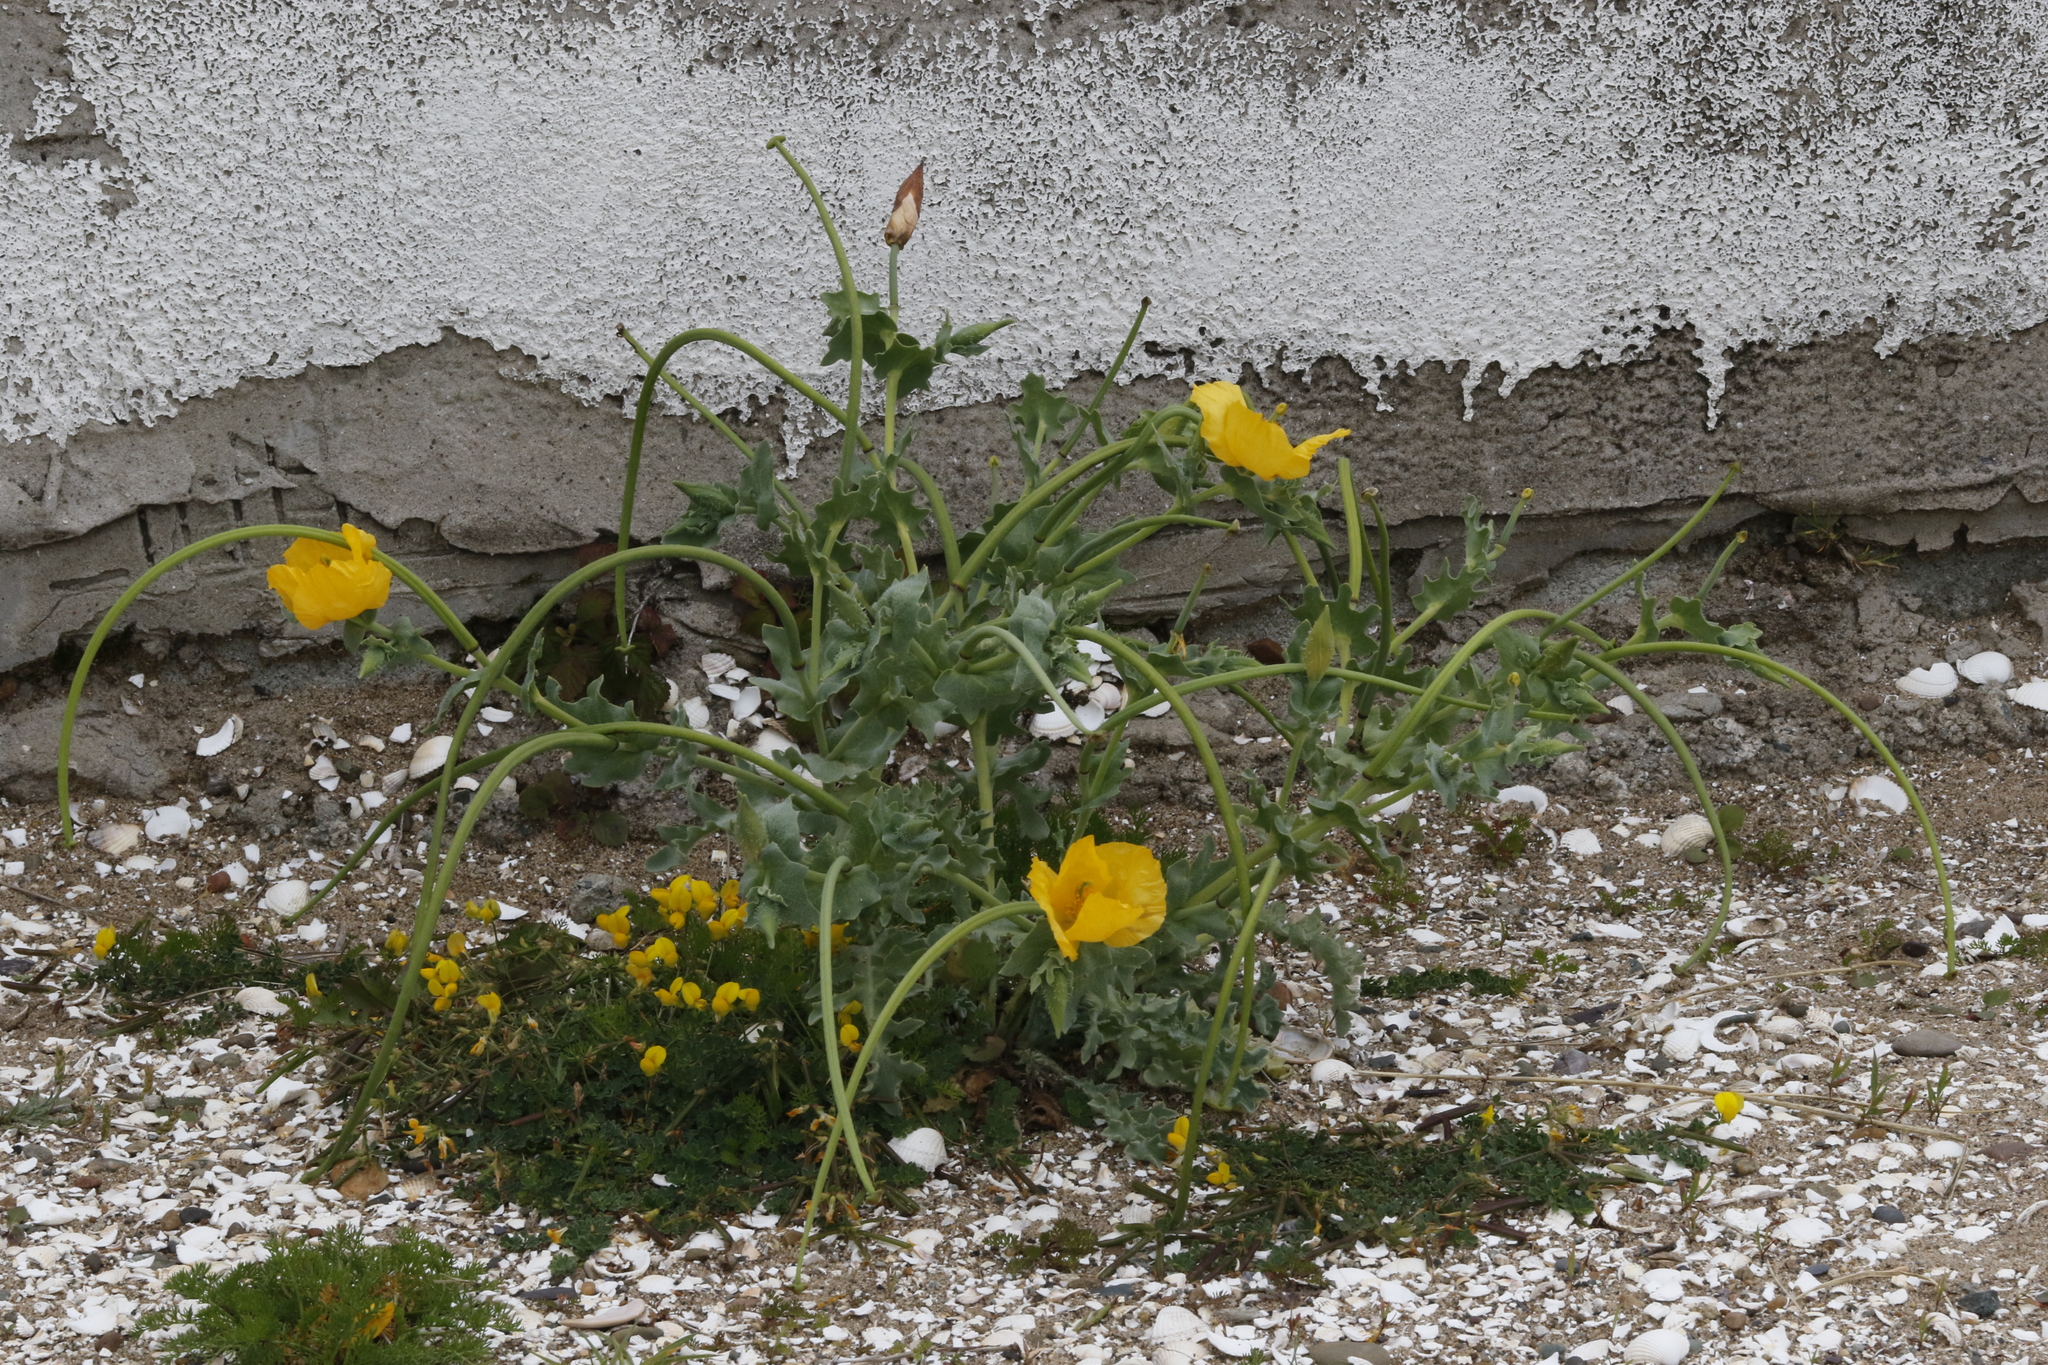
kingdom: Plantae
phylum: Tracheophyta
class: Magnoliopsida
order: Ranunculales
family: Papaveraceae
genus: Glaucium
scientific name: Glaucium flavum
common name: Yellow horned-poppy
